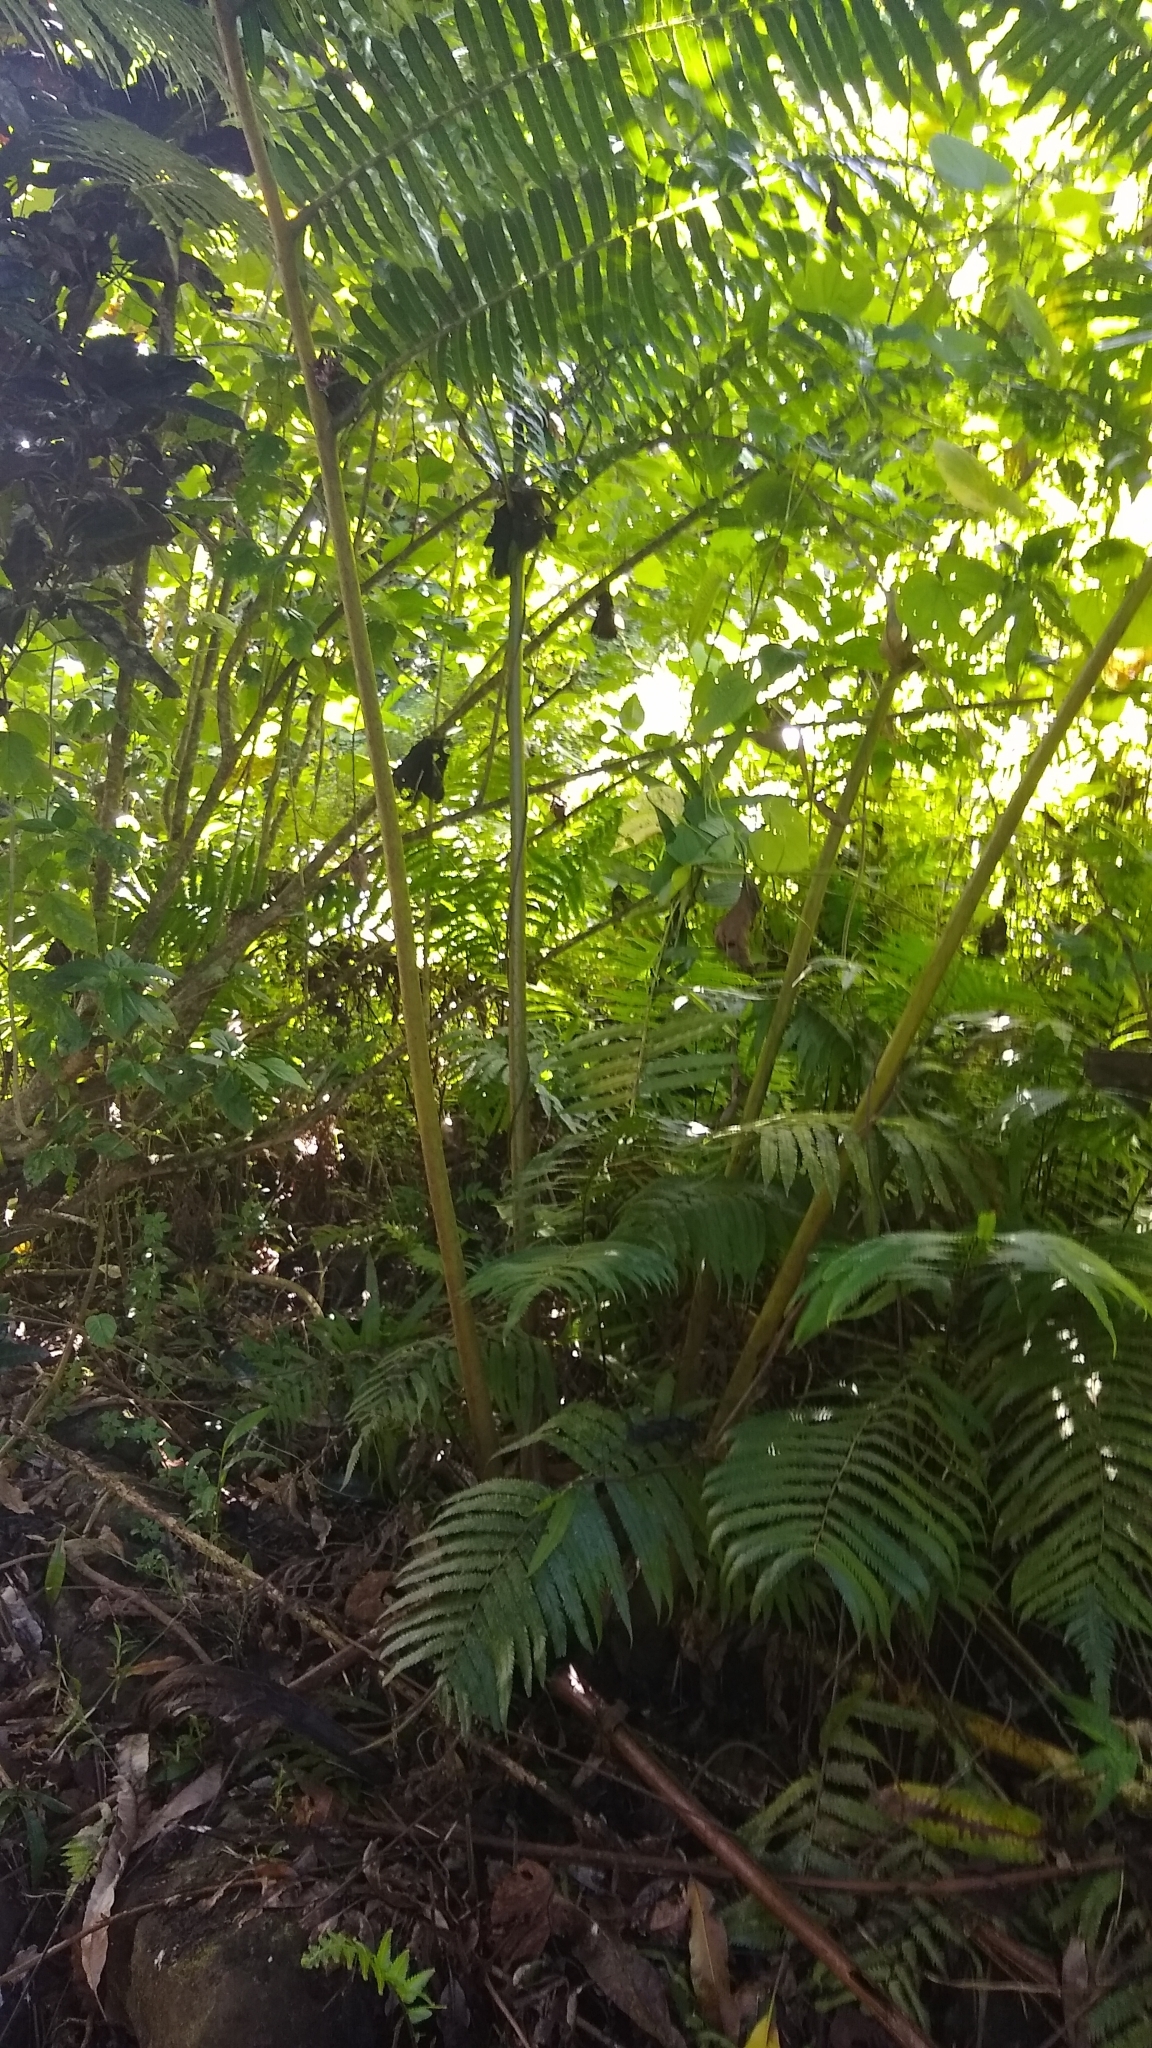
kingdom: Plantae
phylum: Tracheophyta
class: Polypodiopsida
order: Marattiales
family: Marattiaceae
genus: Angiopteris
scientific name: Angiopteris evecta
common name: Mule's-foot fern
